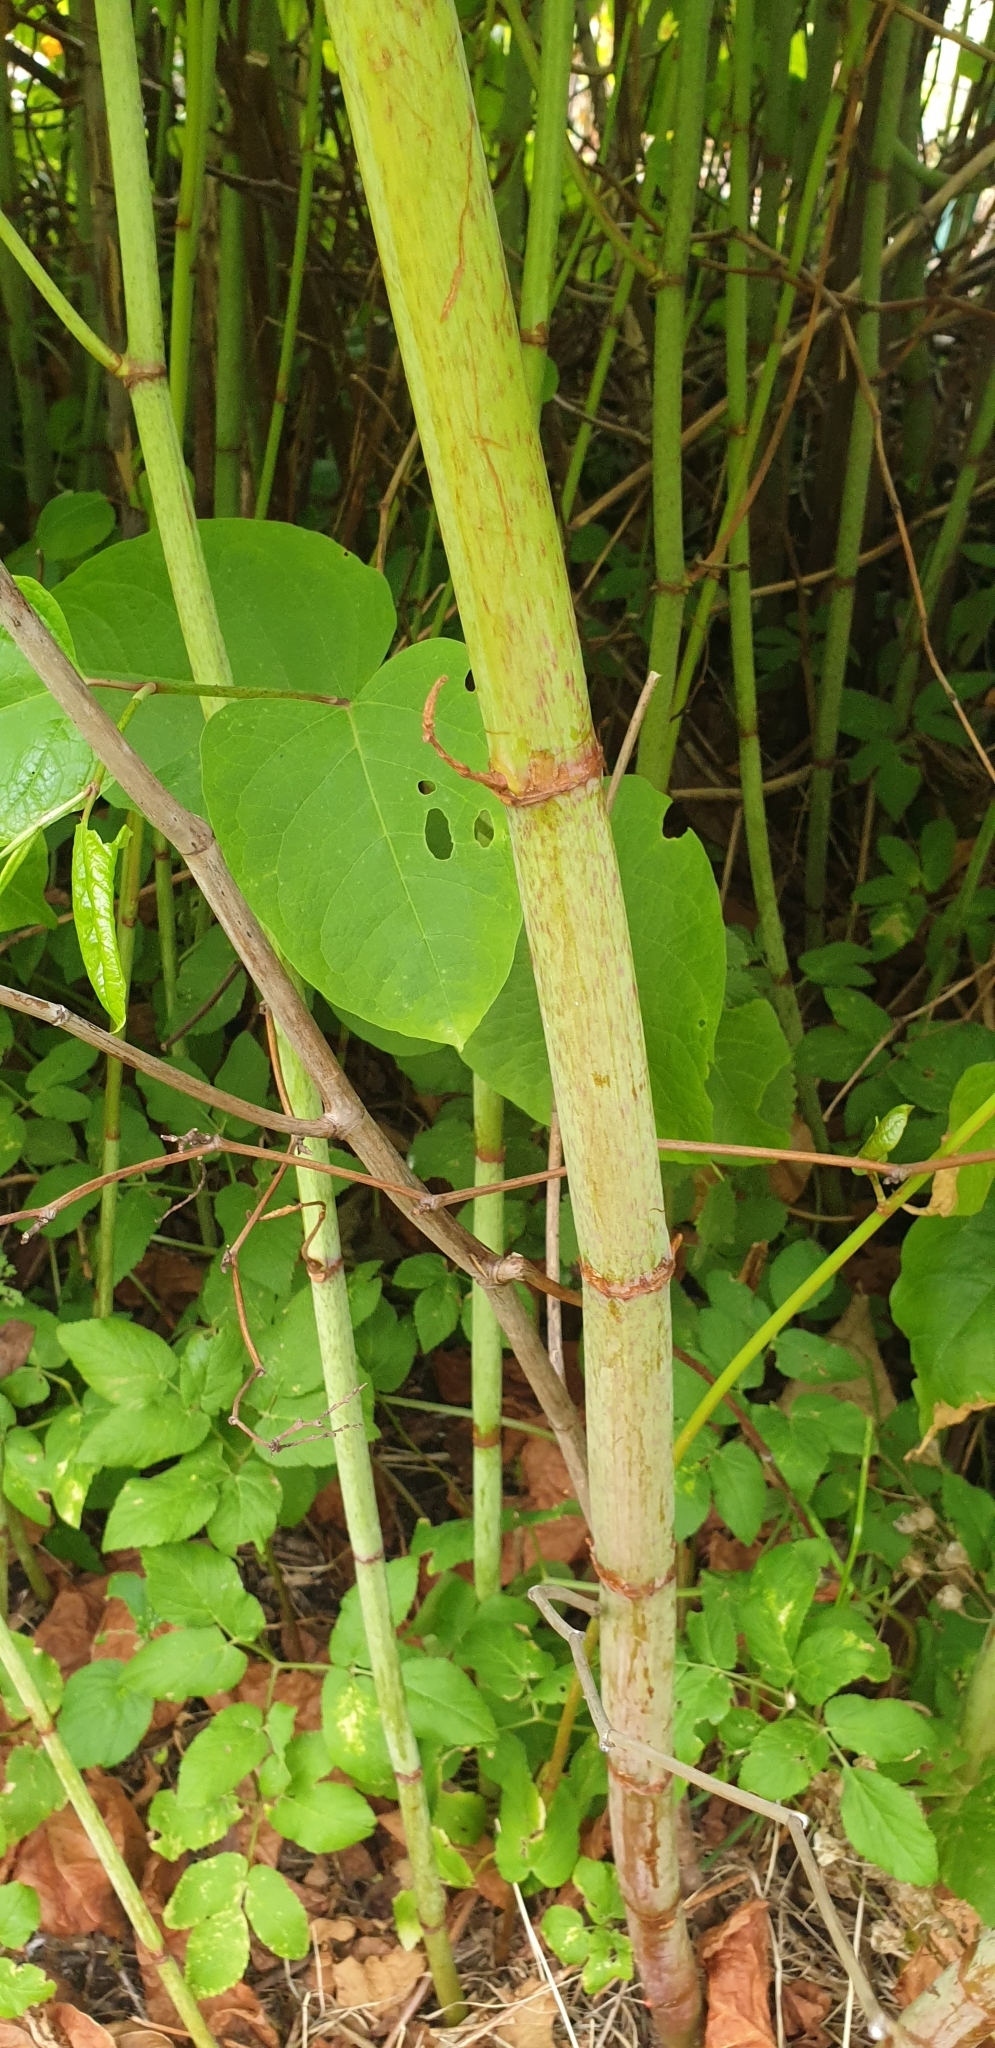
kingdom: Plantae
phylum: Tracheophyta
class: Magnoliopsida
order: Caryophyllales
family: Polygonaceae
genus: Reynoutria
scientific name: Reynoutria japonica
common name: Japanese knotweed
